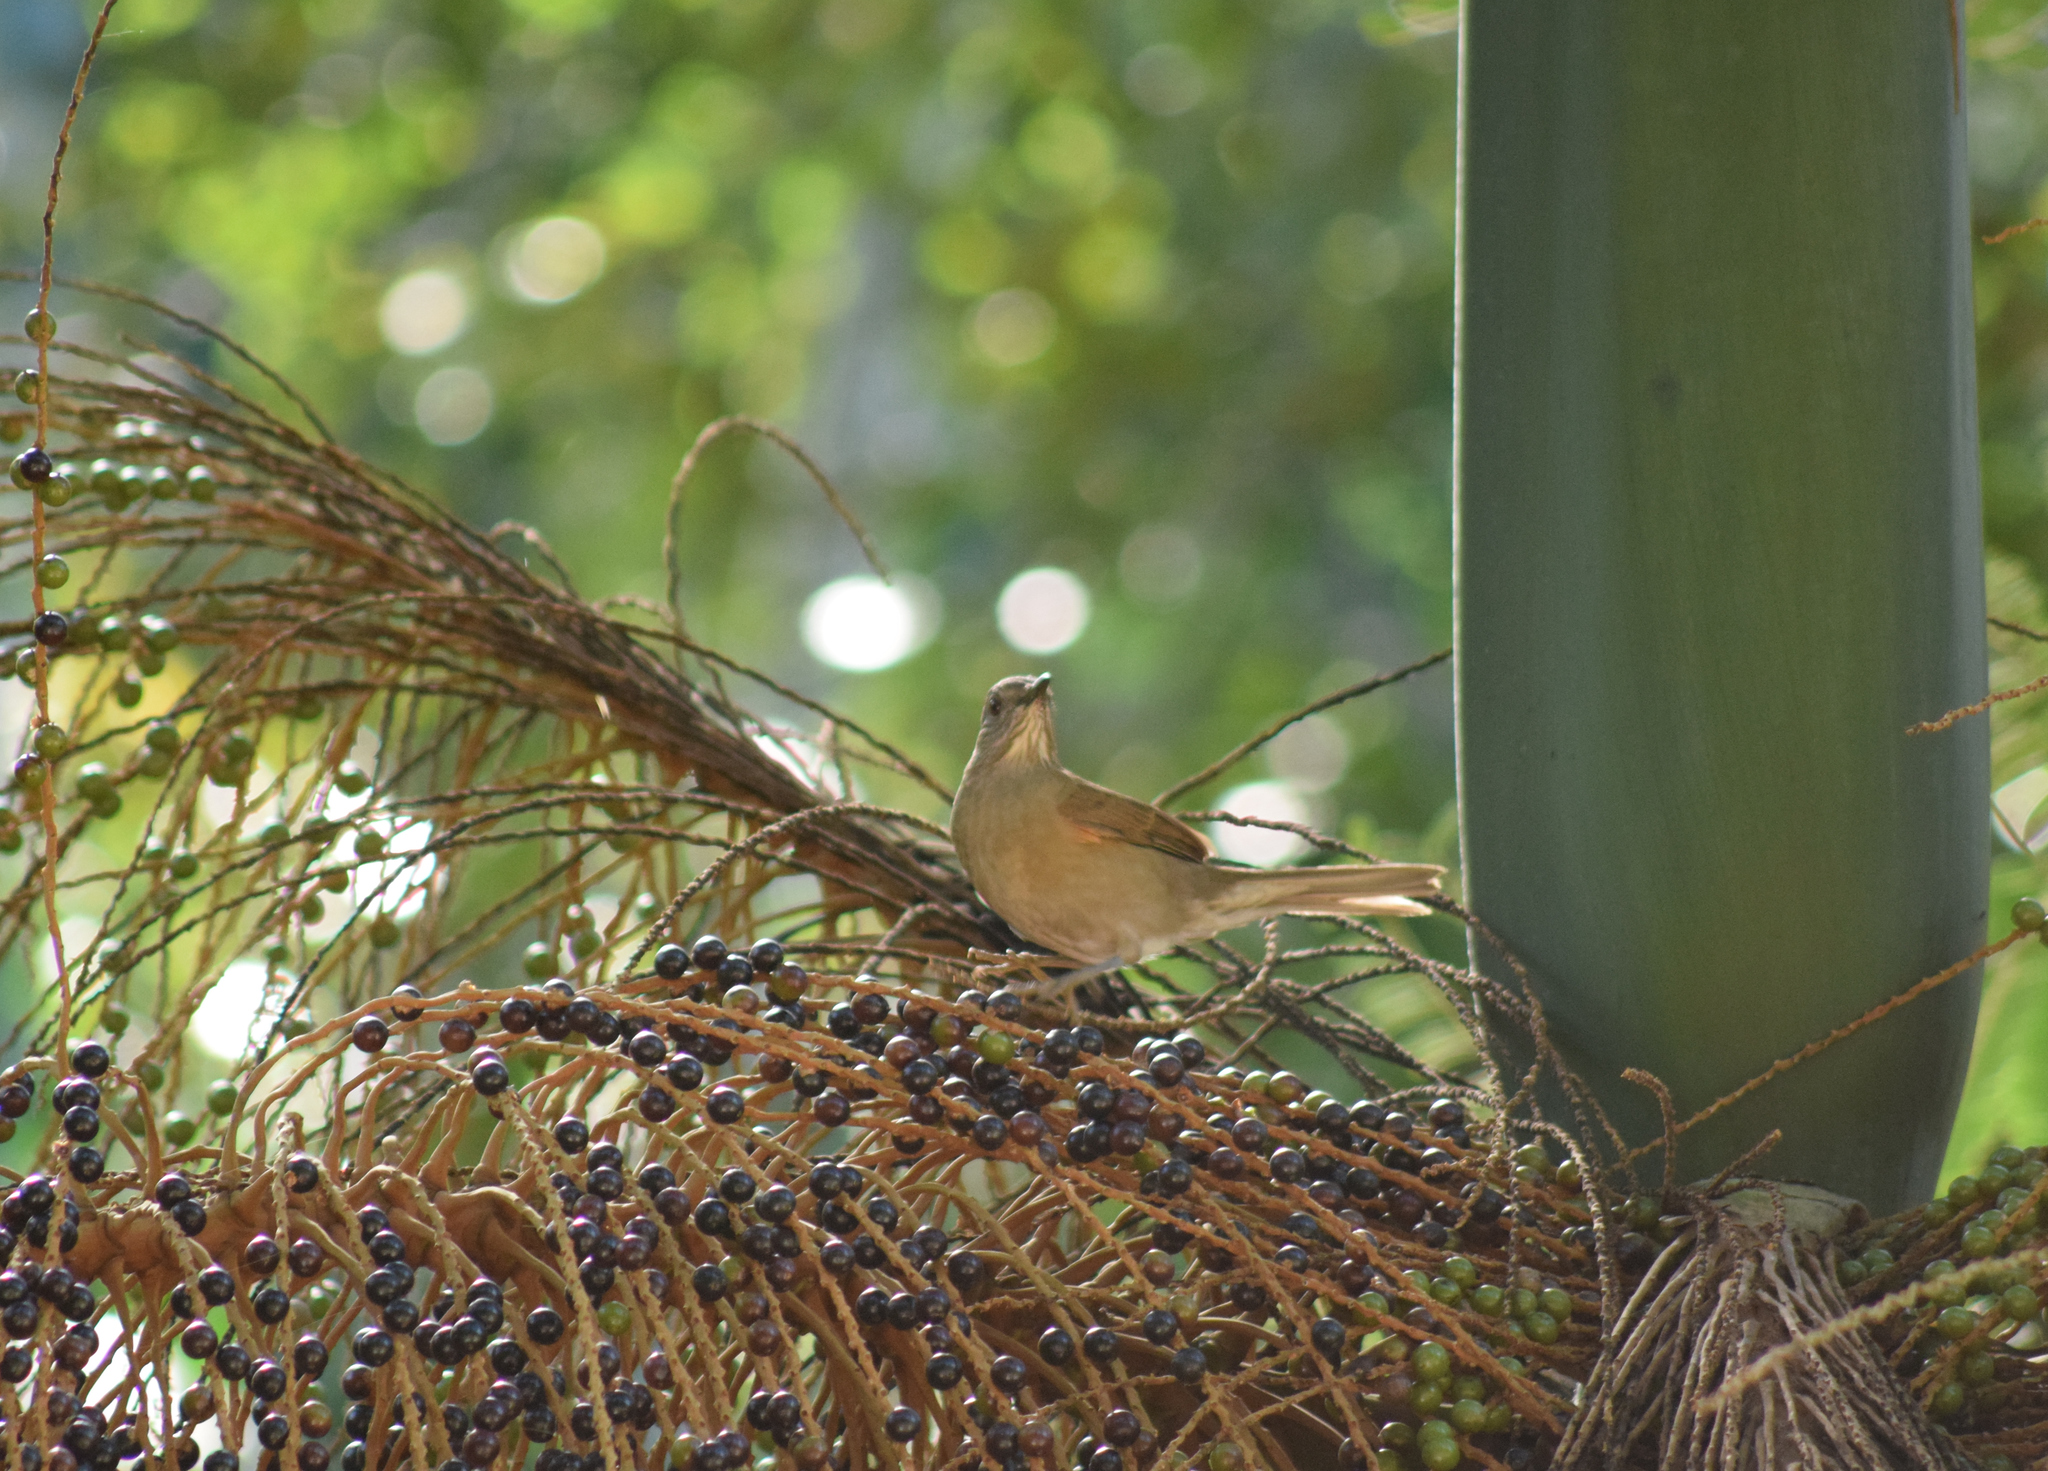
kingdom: Animalia
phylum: Chordata
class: Aves
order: Passeriformes
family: Turdidae
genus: Turdus
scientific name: Turdus leucomelas
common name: Pale-breasted thrush
